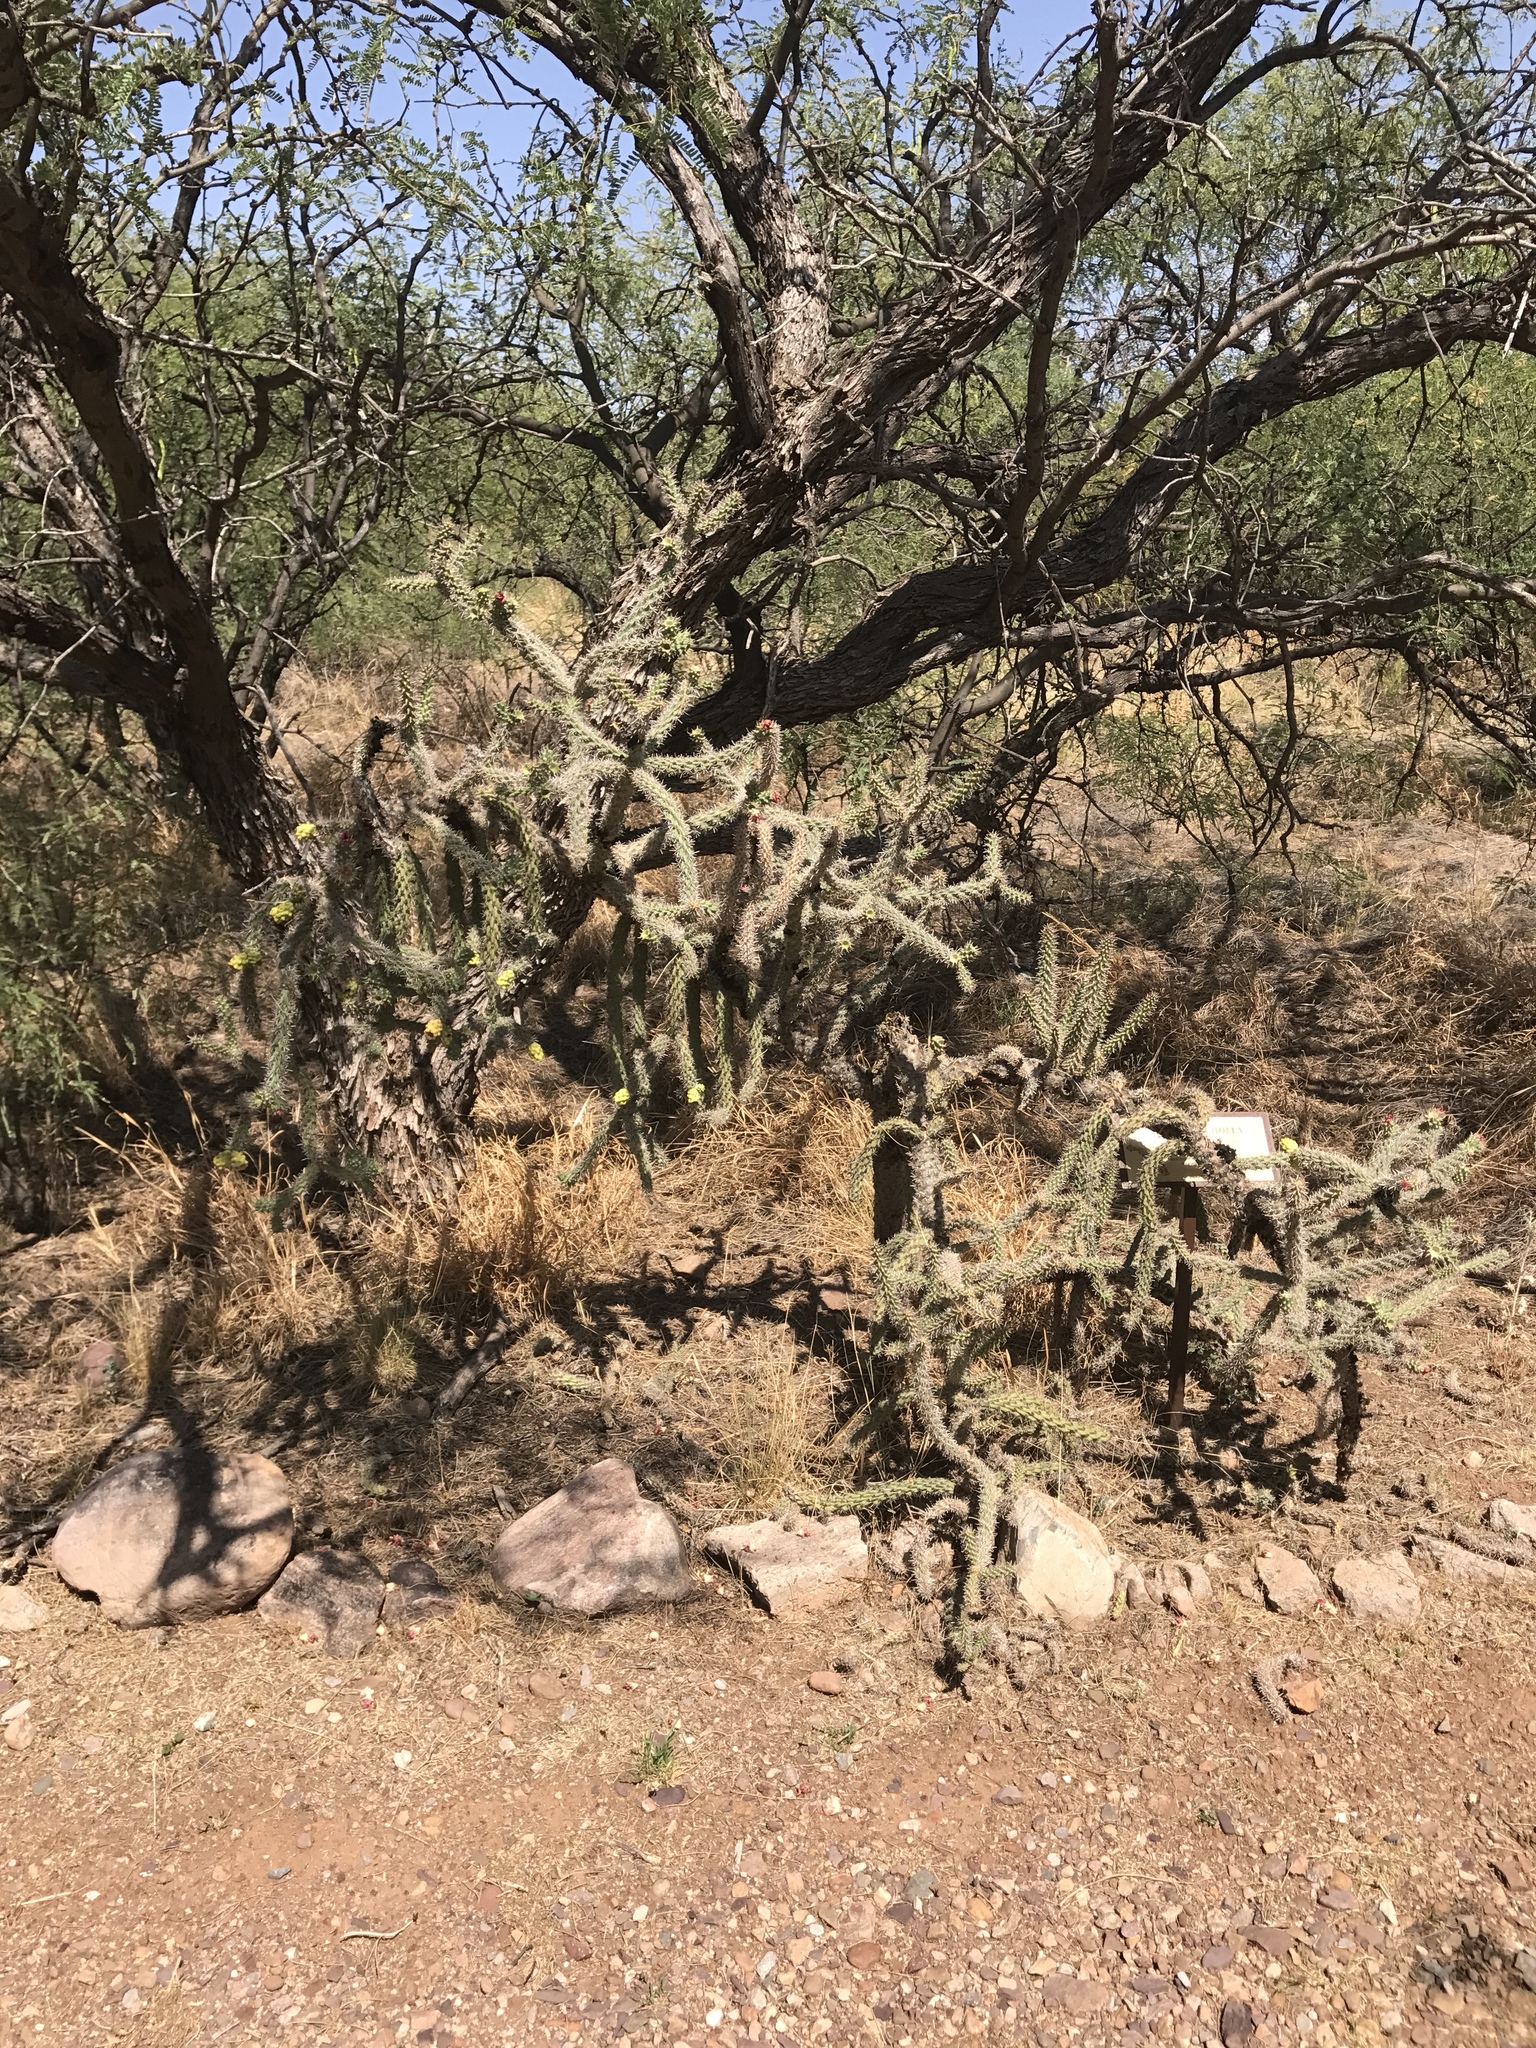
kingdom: Plantae
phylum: Tracheophyta
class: Magnoliopsida
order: Caryophyllales
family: Cactaceae
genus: Cylindropuntia
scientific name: Cylindropuntia imbricata
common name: Candelabrum cactus
